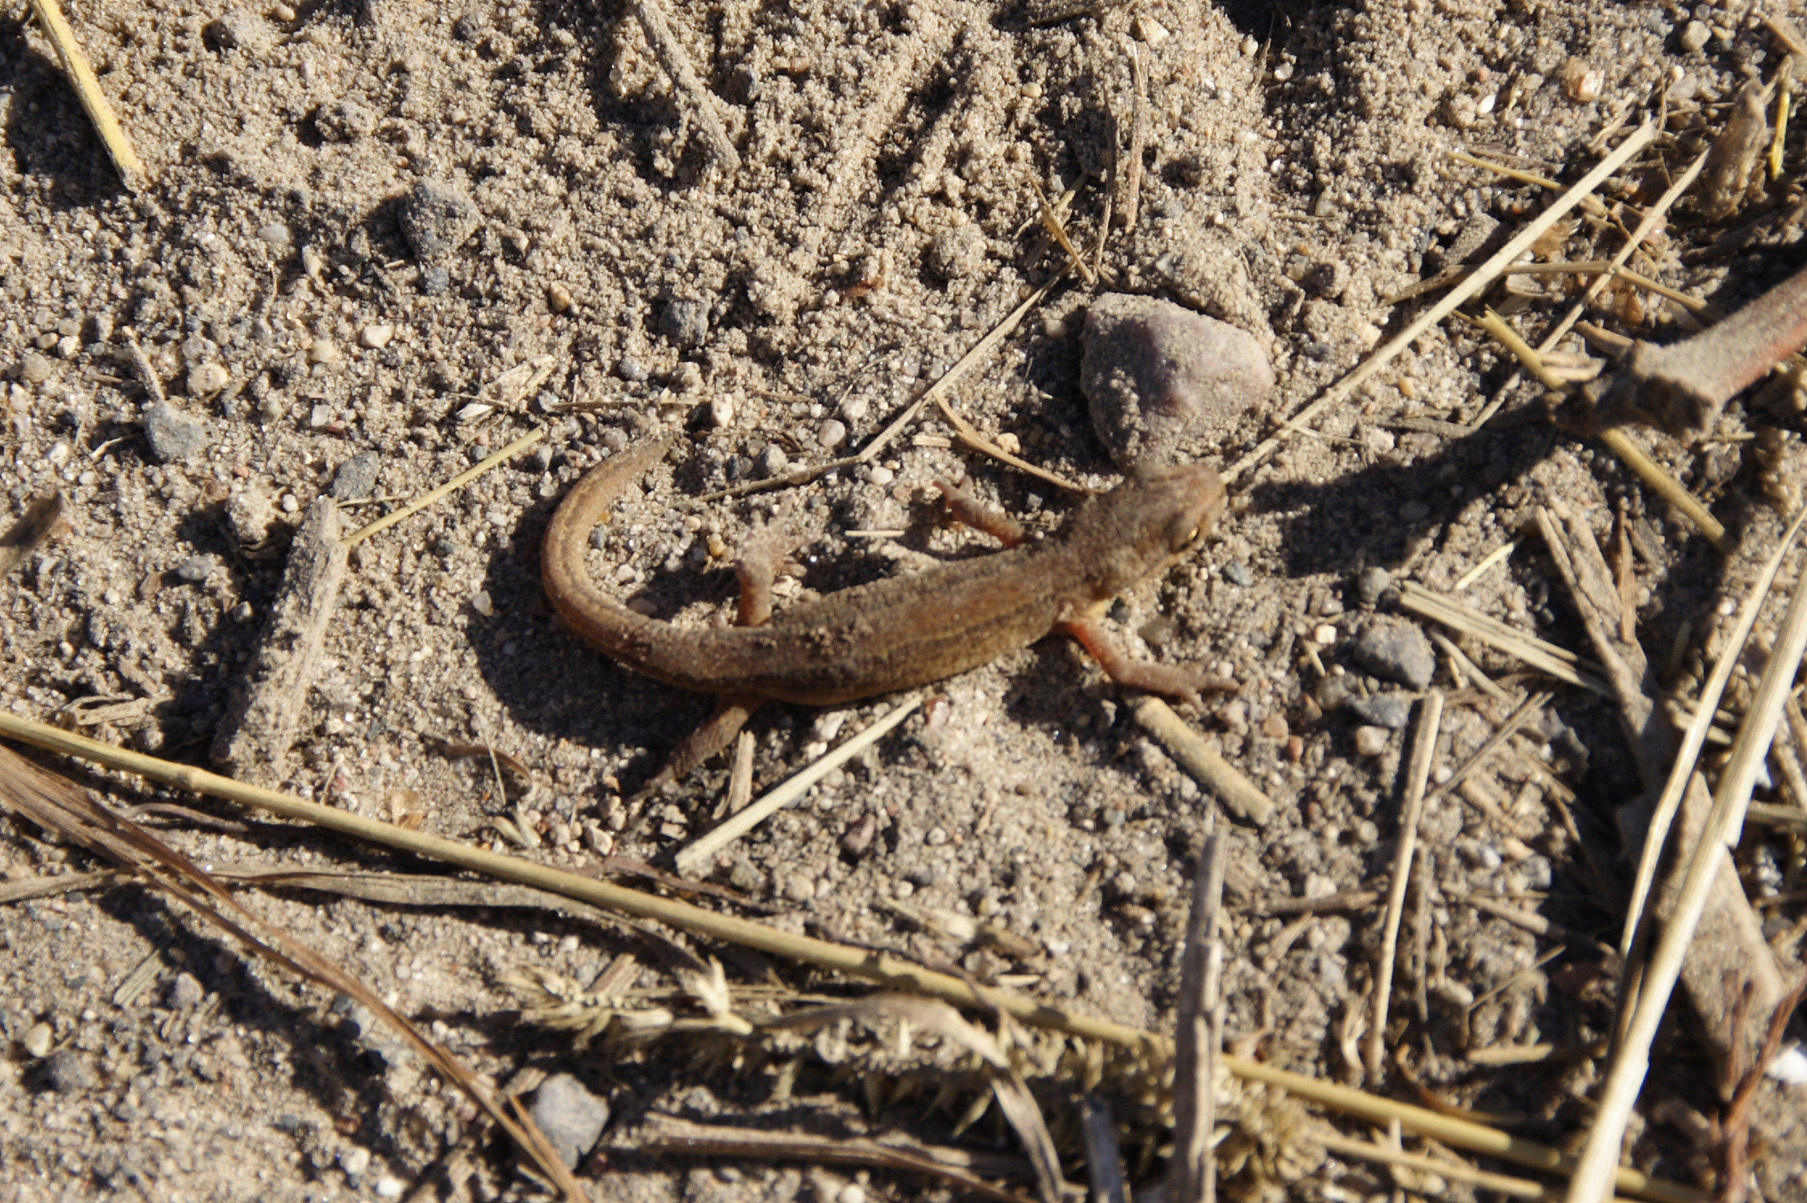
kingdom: Animalia
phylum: Chordata
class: Amphibia
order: Caudata
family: Salamandridae
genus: Lissotriton
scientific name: Lissotriton vulgaris
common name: Smooth newt
